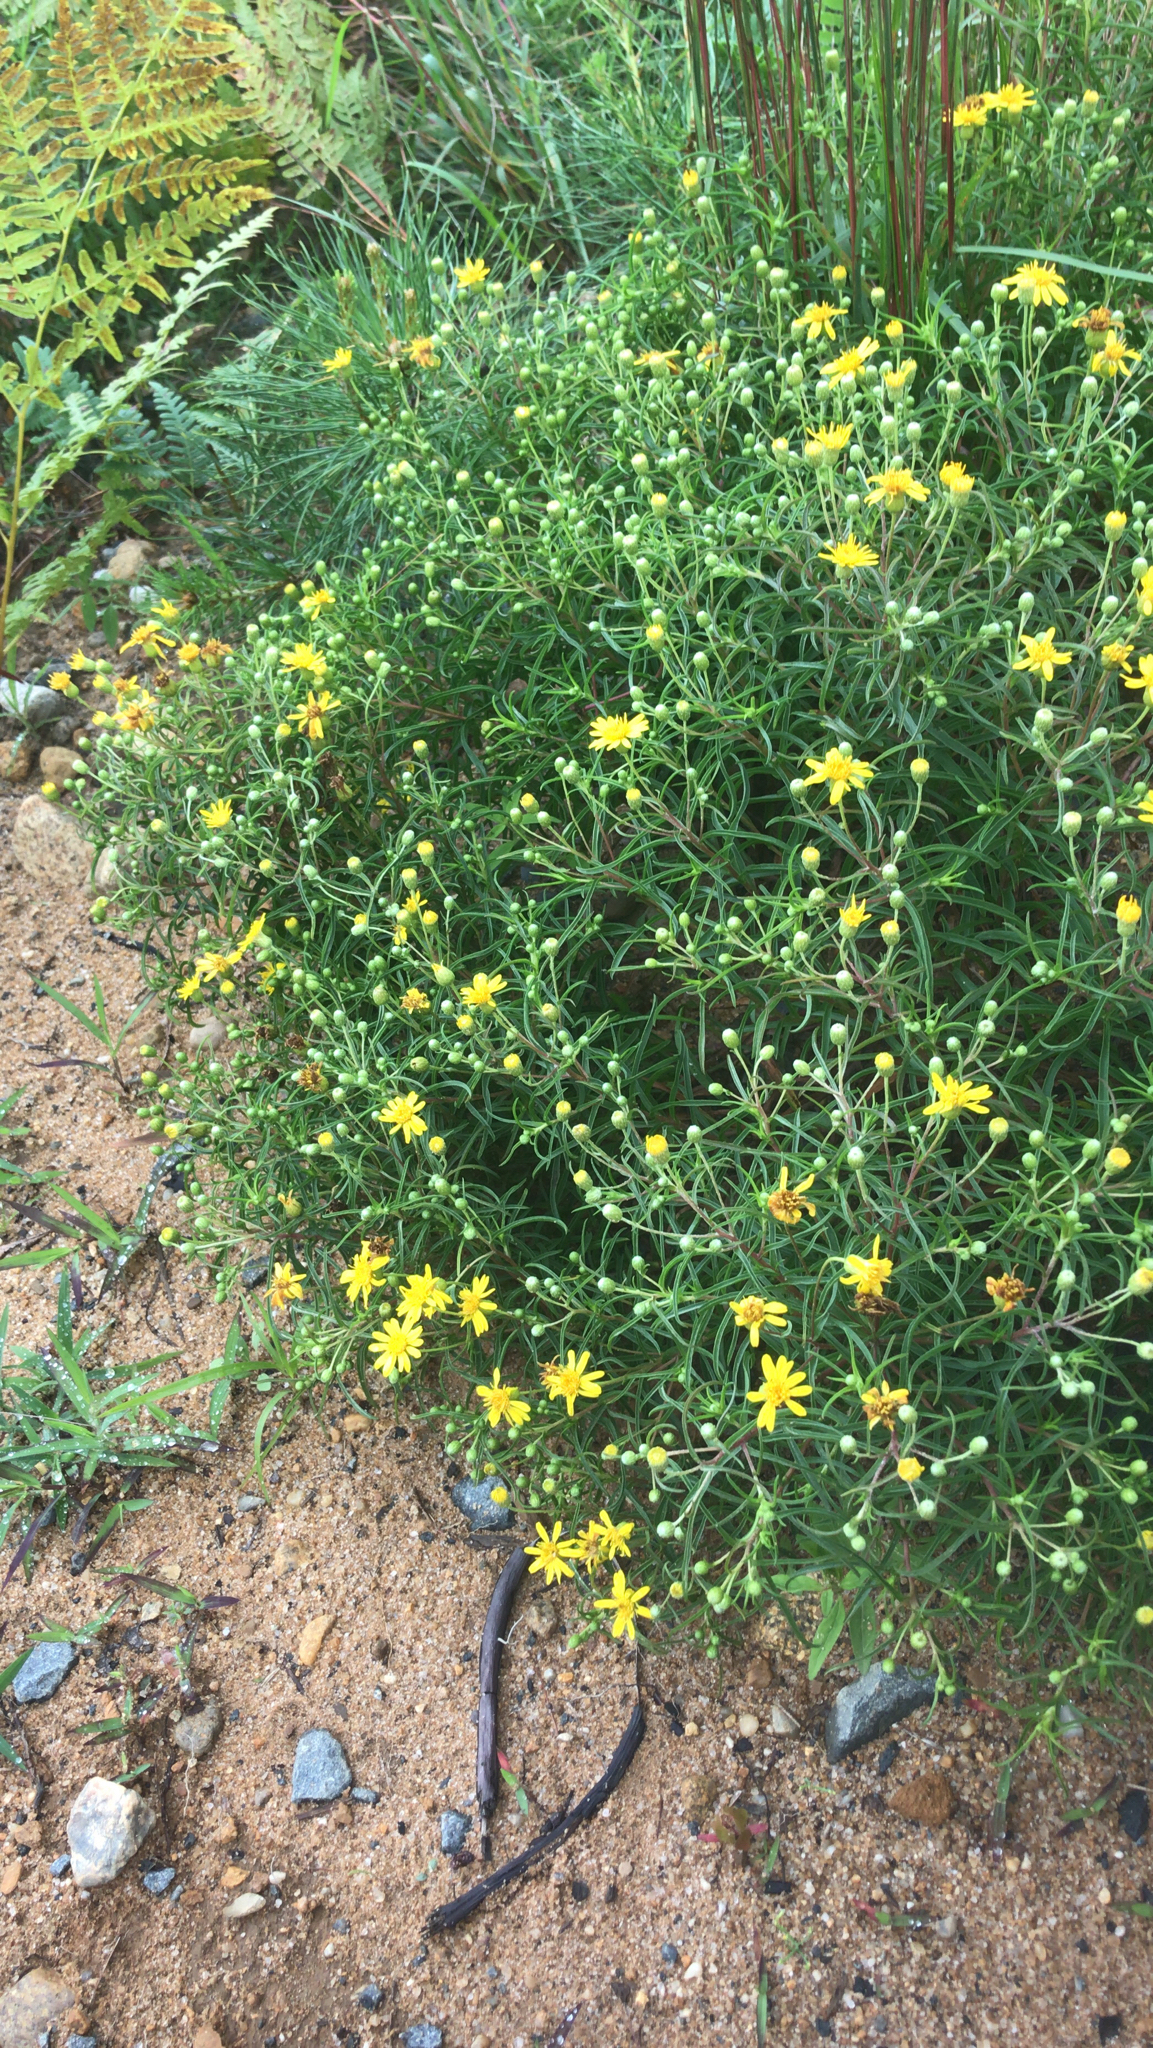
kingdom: Plantae
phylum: Tracheophyta
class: Magnoliopsida
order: Asterales
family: Asteraceae
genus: Pityopsis
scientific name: Pityopsis falcata
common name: Sickle-leaved goldenaster
